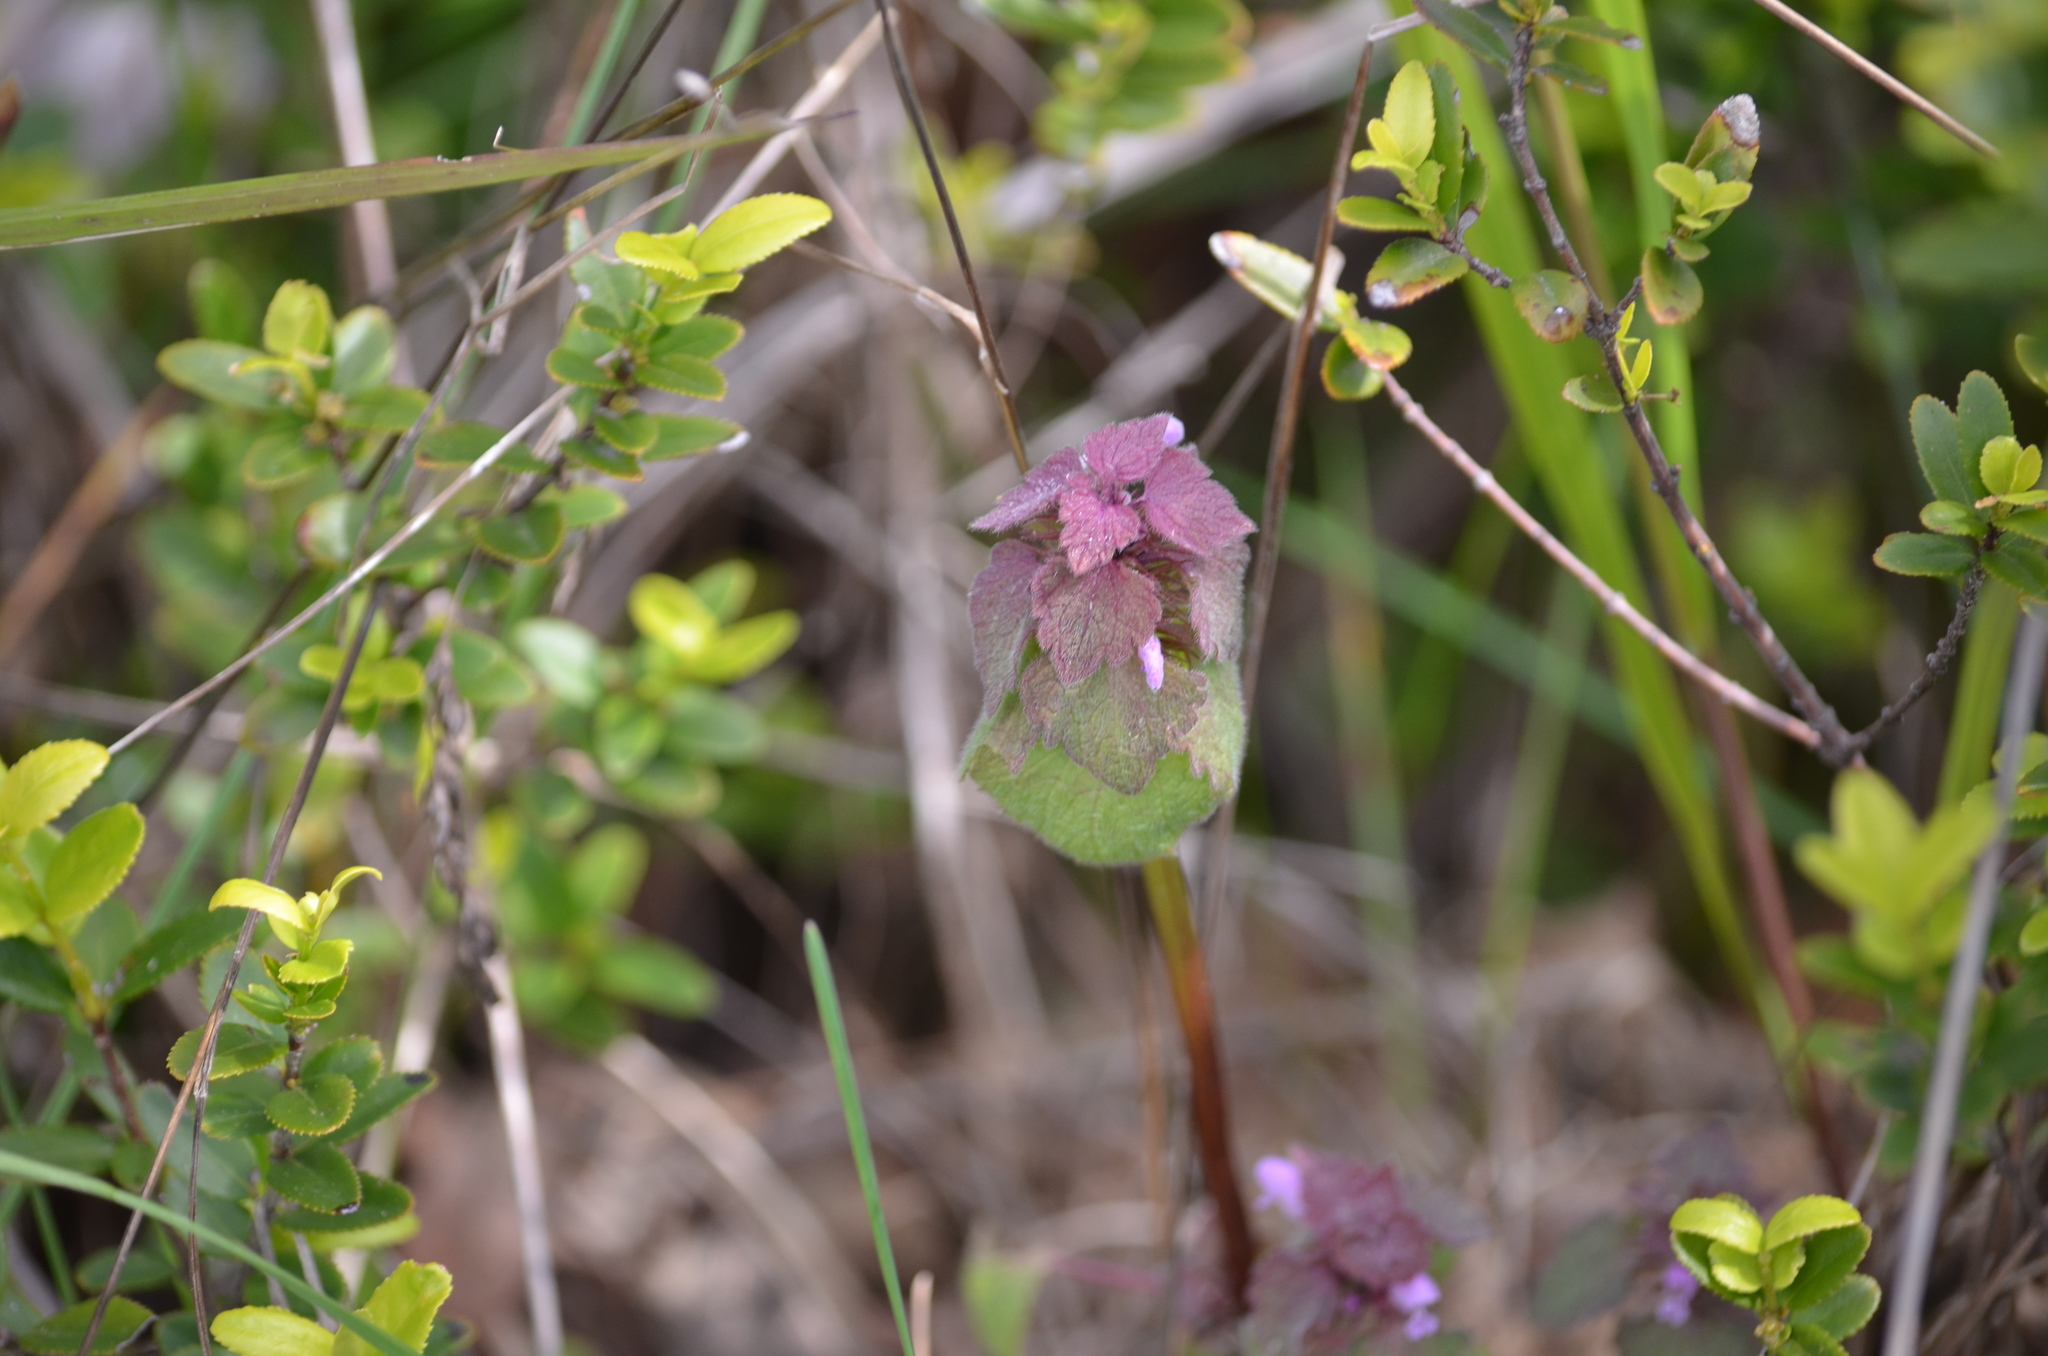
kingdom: Plantae
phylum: Tracheophyta
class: Magnoliopsida
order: Lamiales
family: Lamiaceae
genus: Lamium
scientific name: Lamium purpureum
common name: Red dead-nettle
